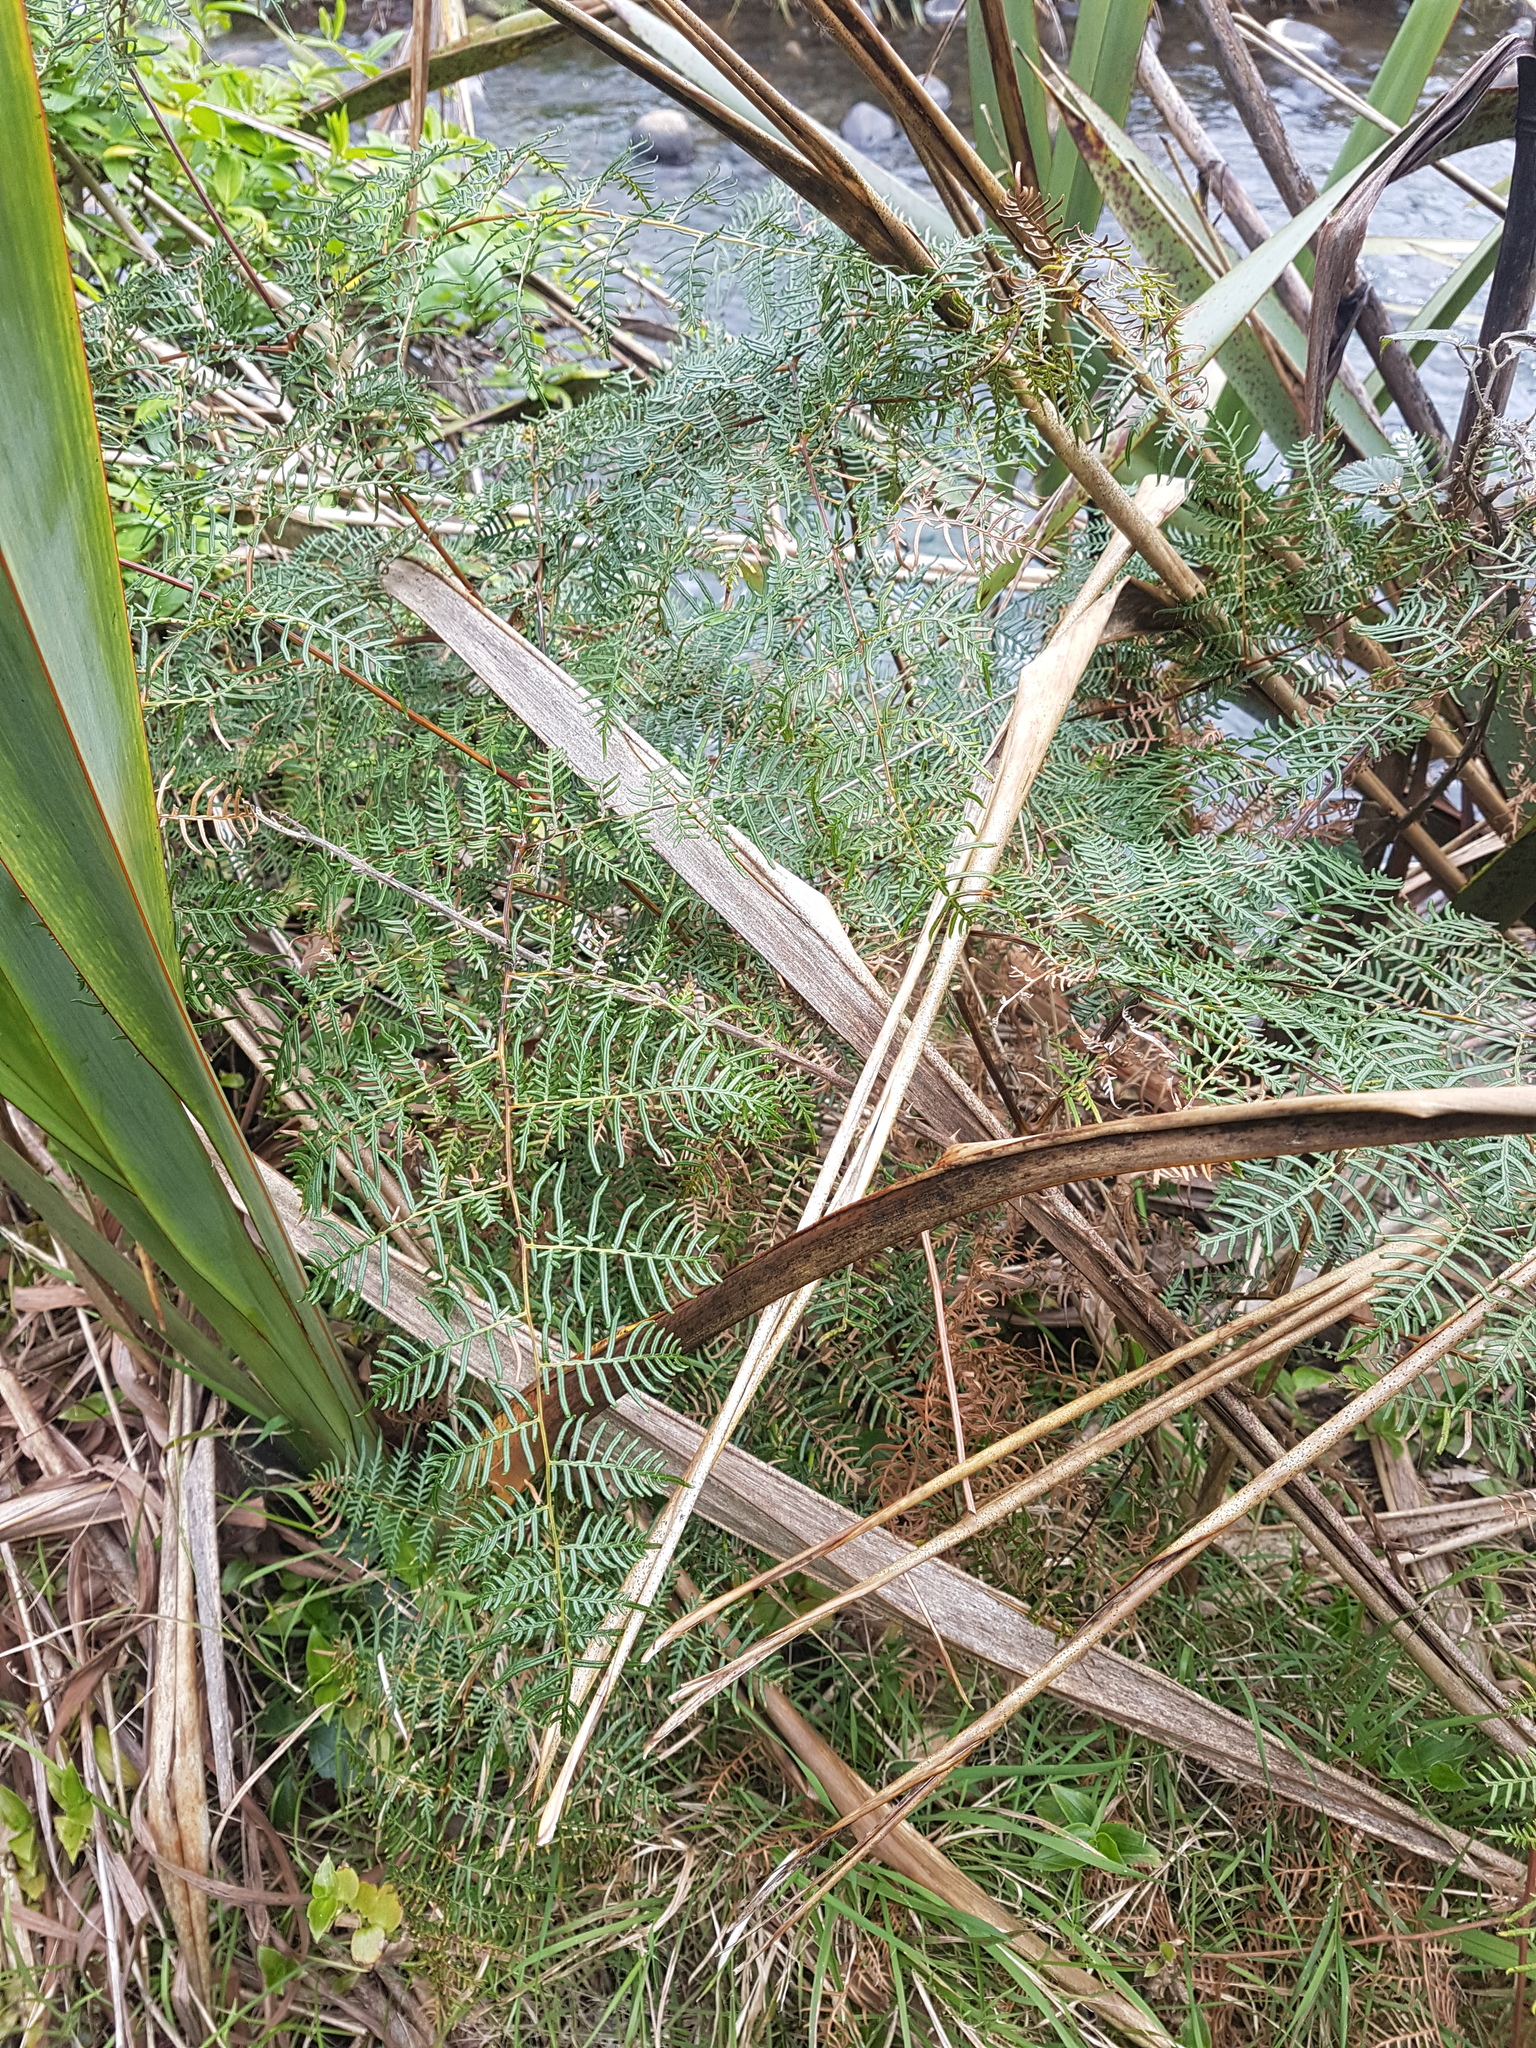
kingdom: Plantae
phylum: Tracheophyta
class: Polypodiopsida
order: Polypodiales
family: Dennstaedtiaceae
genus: Pteridium
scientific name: Pteridium esculentum
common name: Bracken fern
